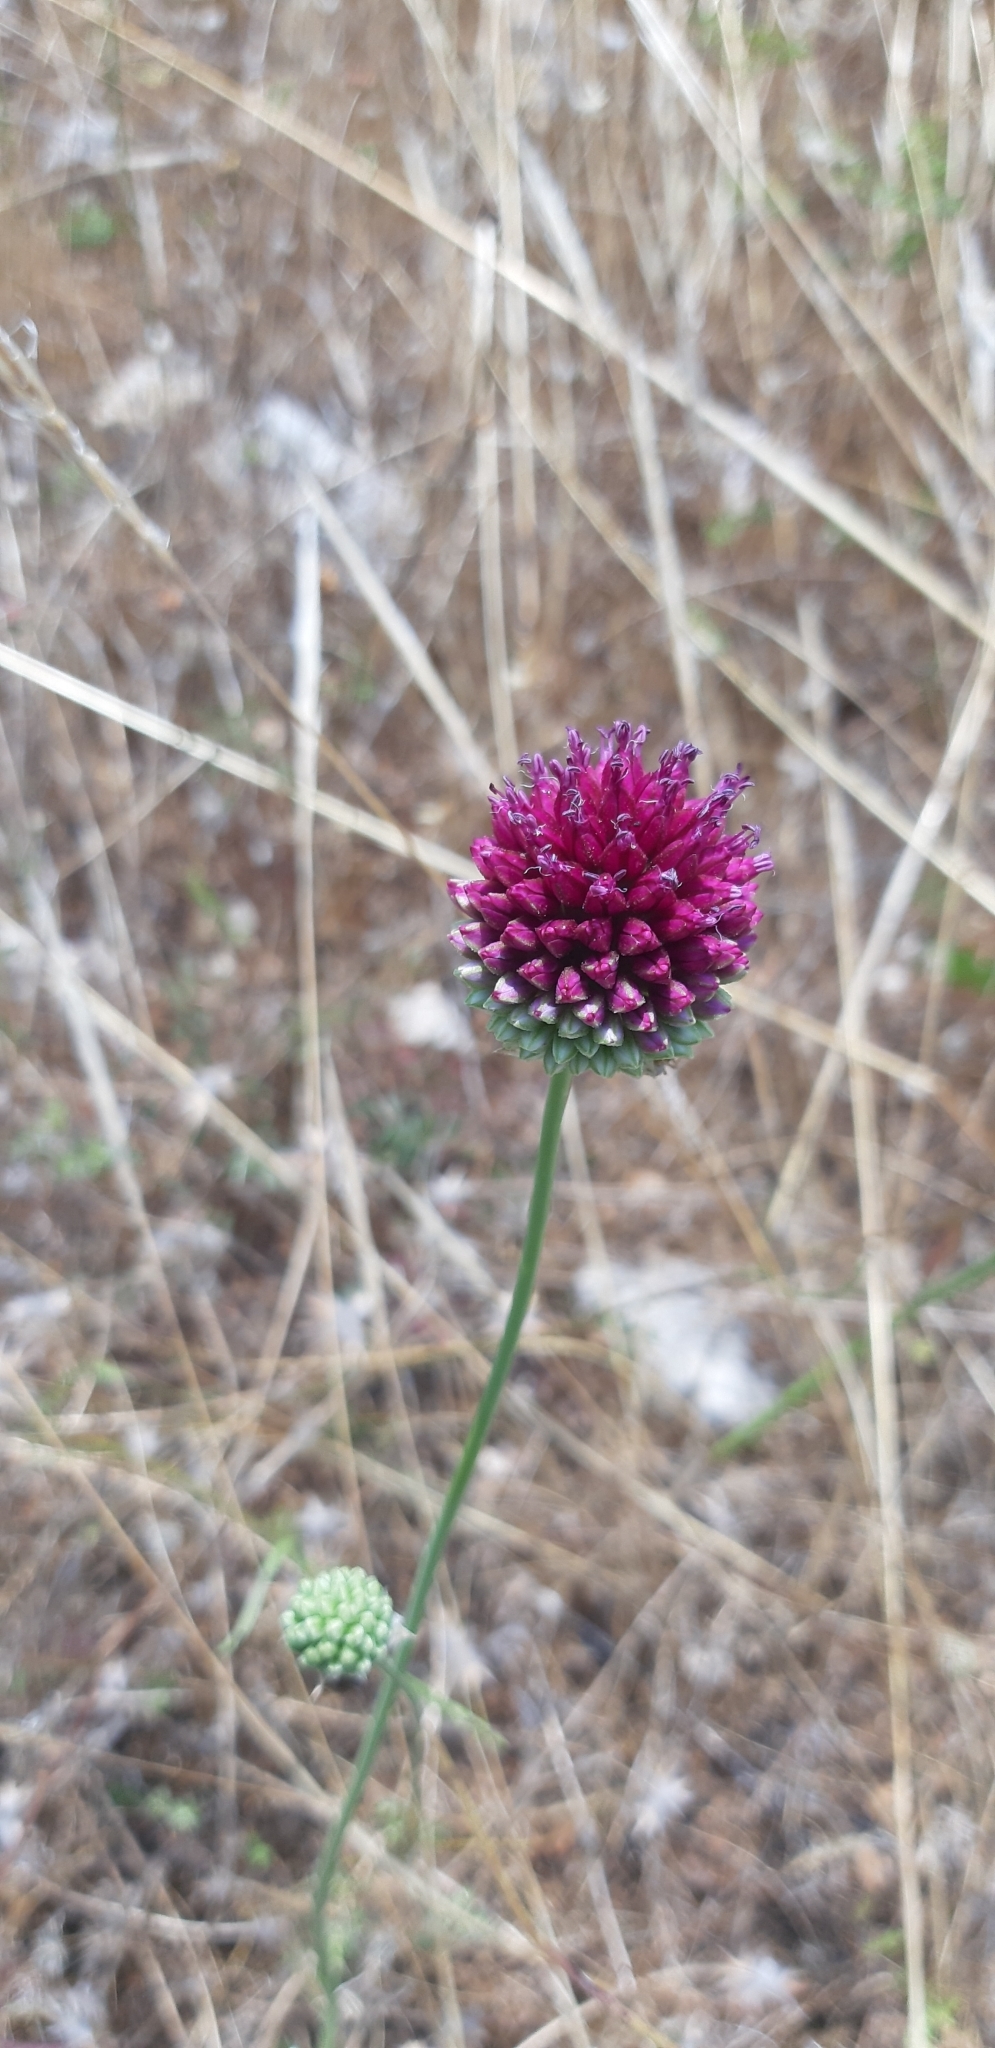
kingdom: Plantae
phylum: Tracheophyta
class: Liliopsida
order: Asparagales
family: Amaryllidaceae
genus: Allium
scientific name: Allium sphaerocephalon
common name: Round-headed leek
